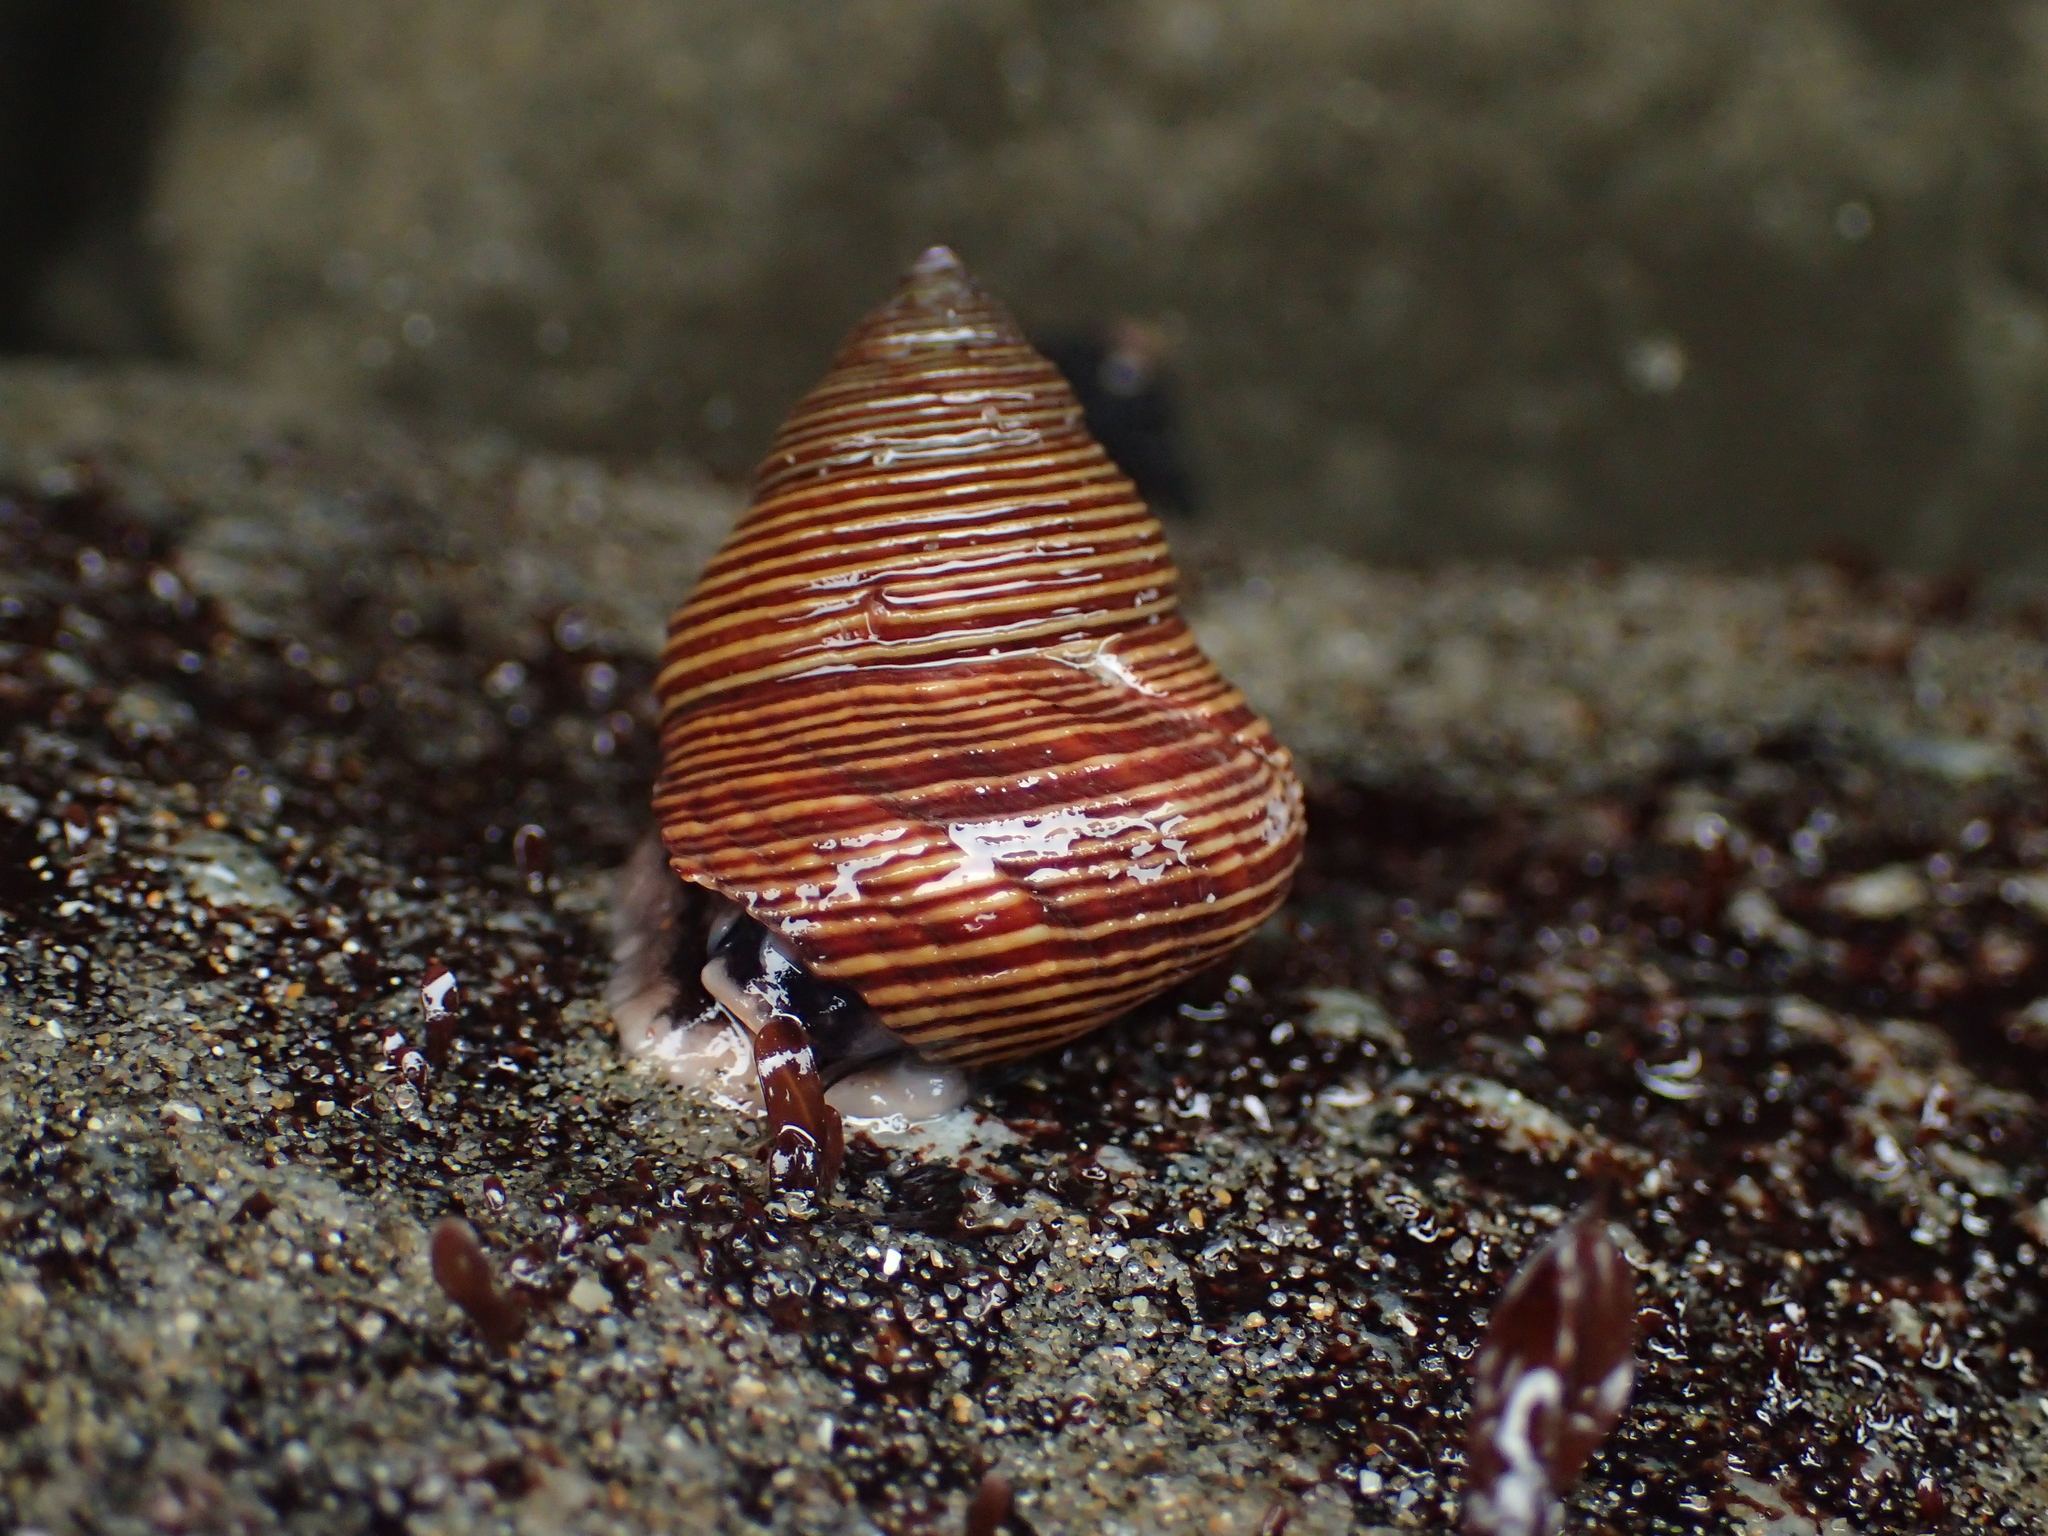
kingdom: Animalia
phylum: Mollusca
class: Gastropoda
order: Trochida
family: Calliostomatidae
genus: Calliostoma
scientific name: Calliostoma ligatum
